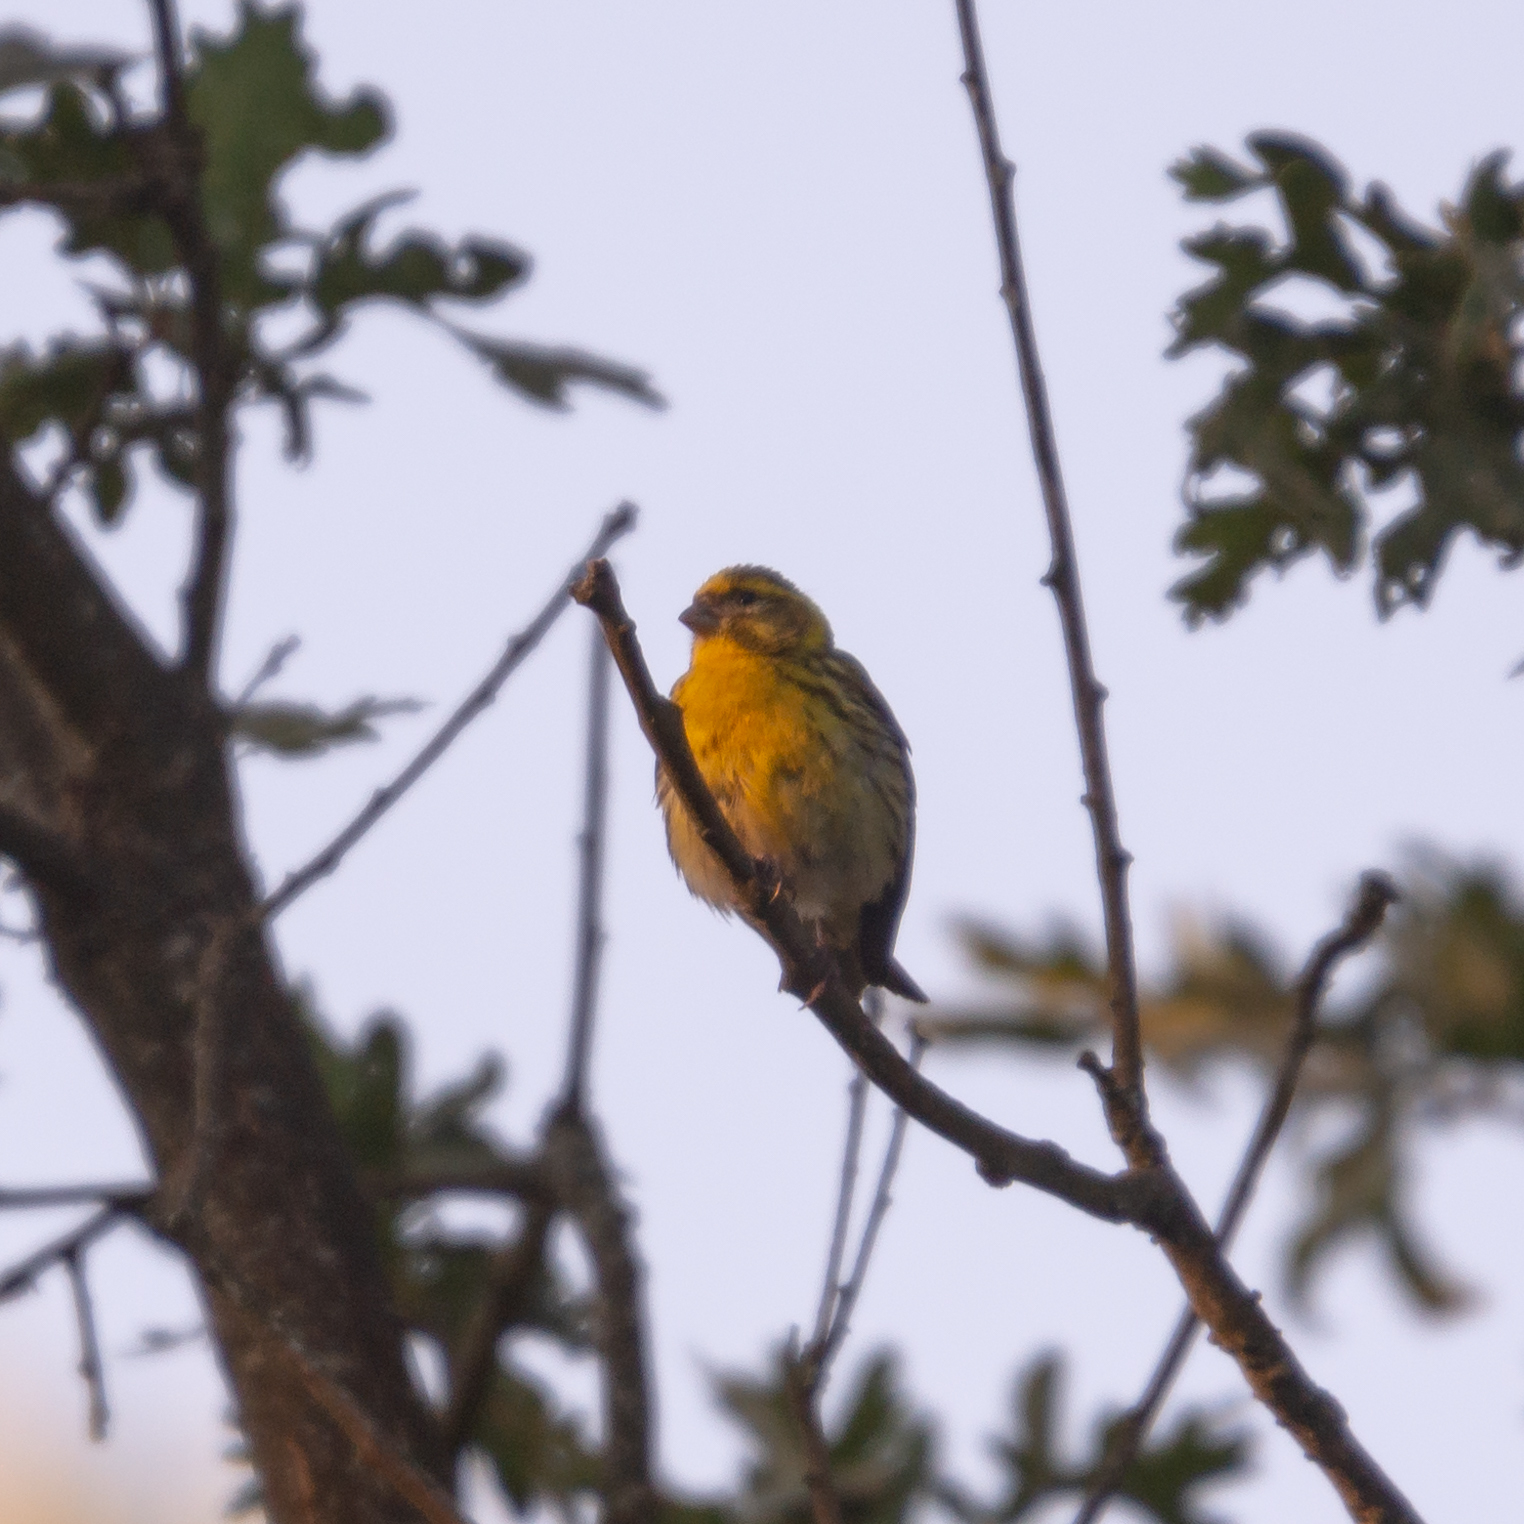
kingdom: Animalia
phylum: Chordata
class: Aves
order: Passeriformes
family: Fringillidae
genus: Serinus
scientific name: Serinus serinus
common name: European serin
